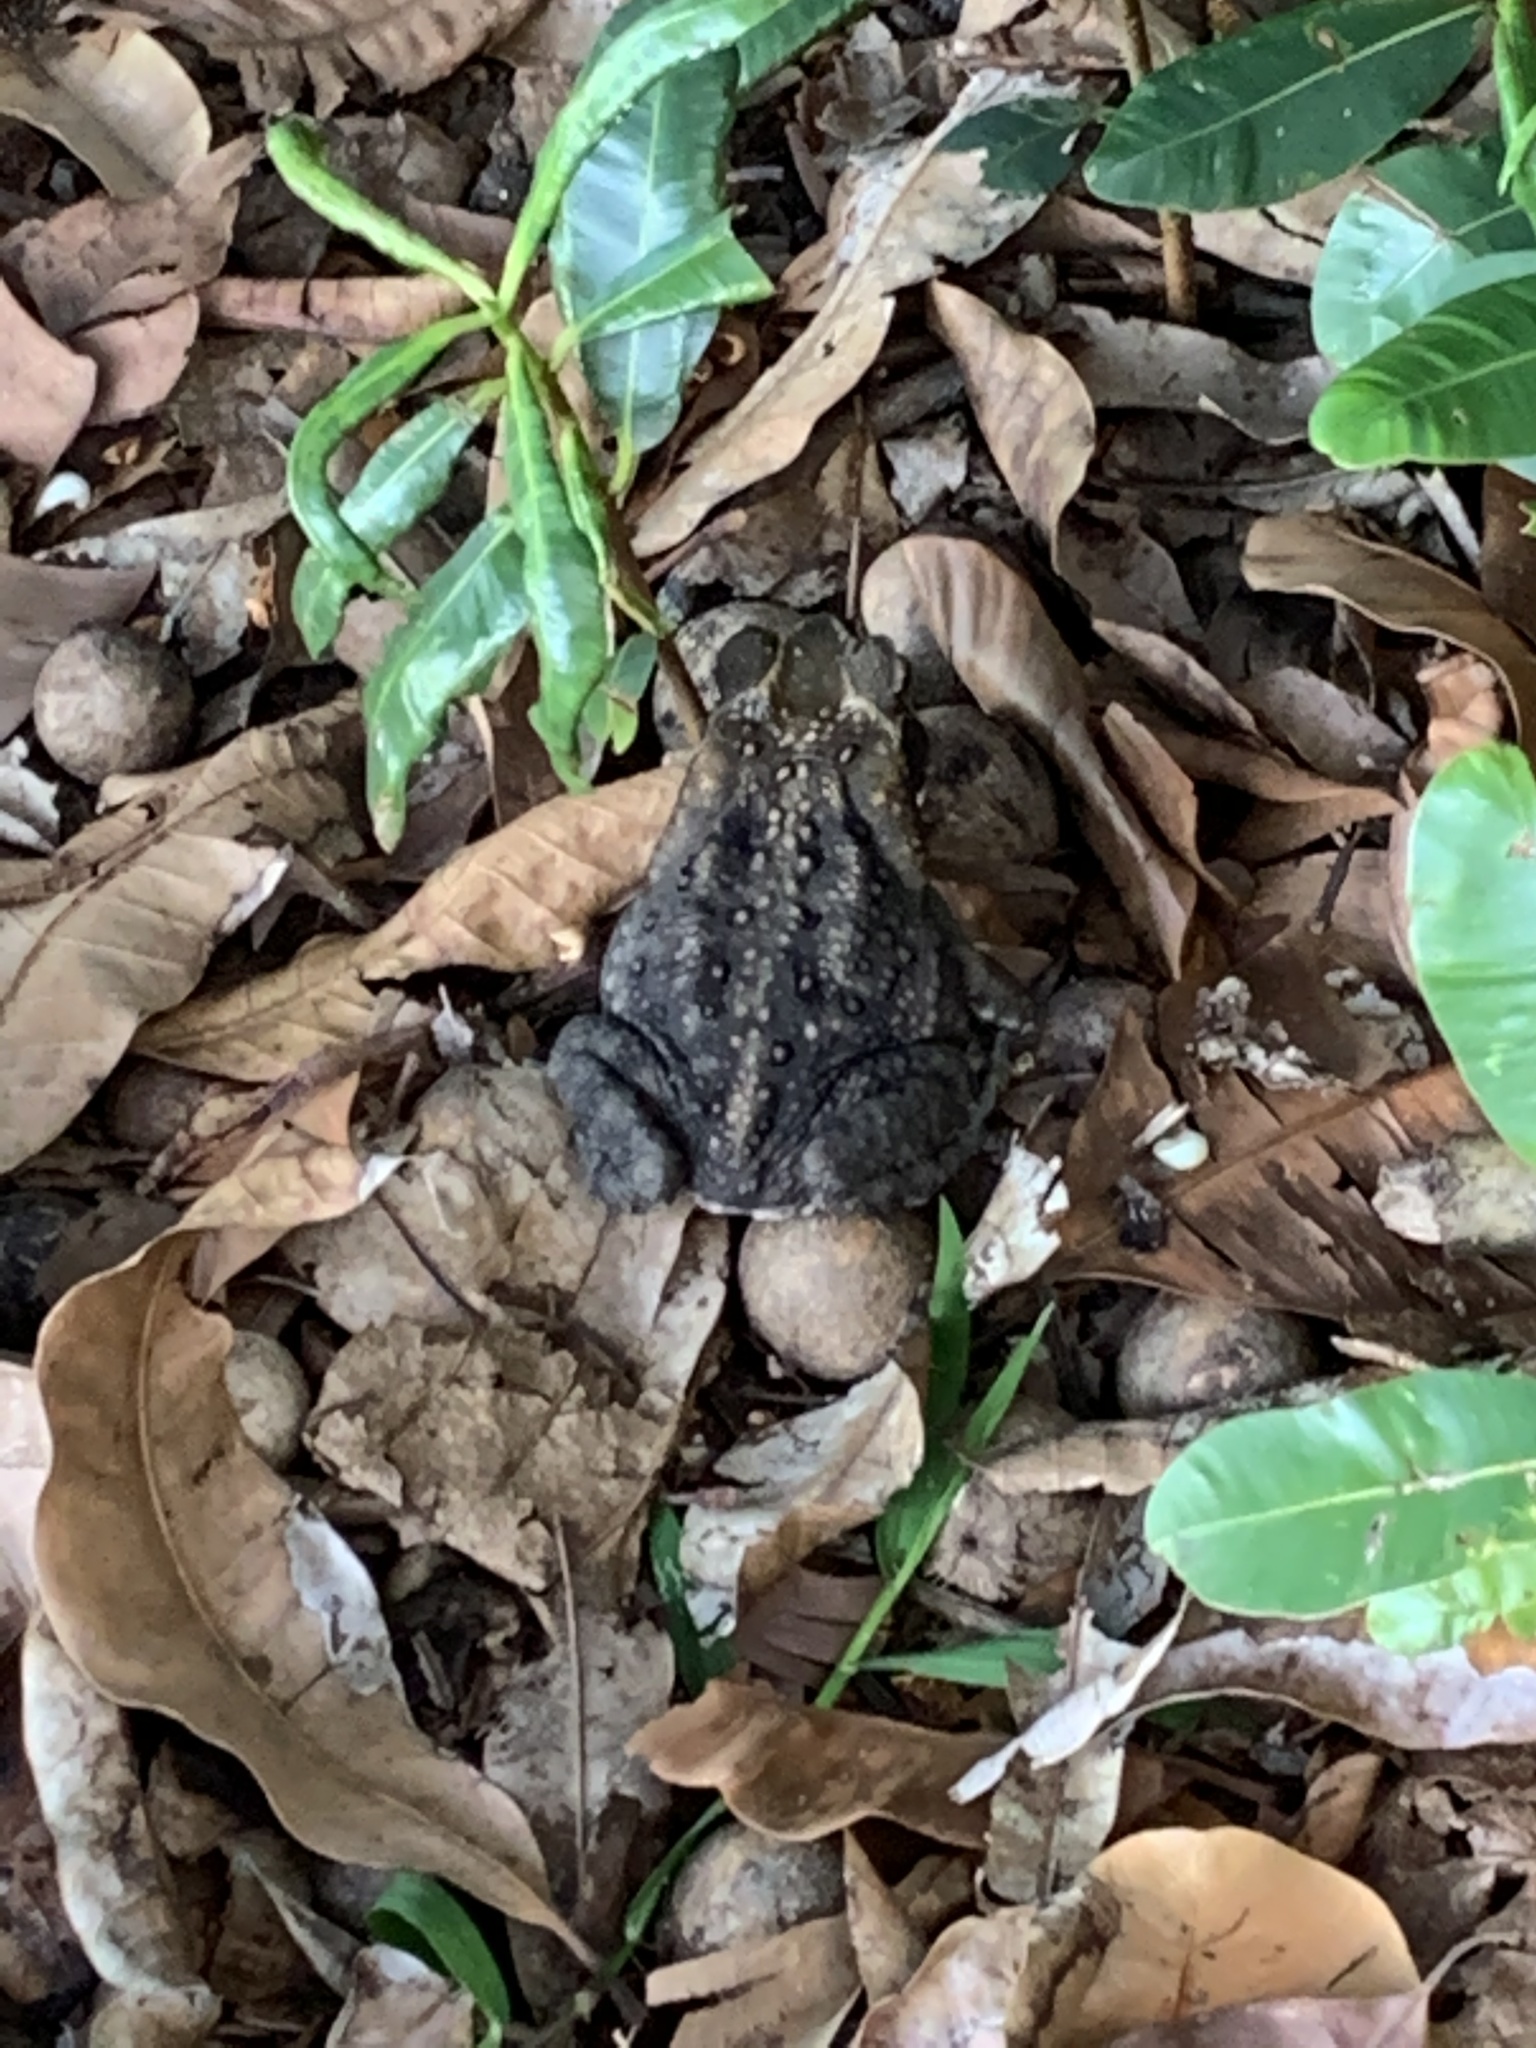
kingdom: Animalia
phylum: Chordata
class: Amphibia
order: Anura
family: Bufonidae
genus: Rhinella
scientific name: Rhinella marina
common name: Cane toad
